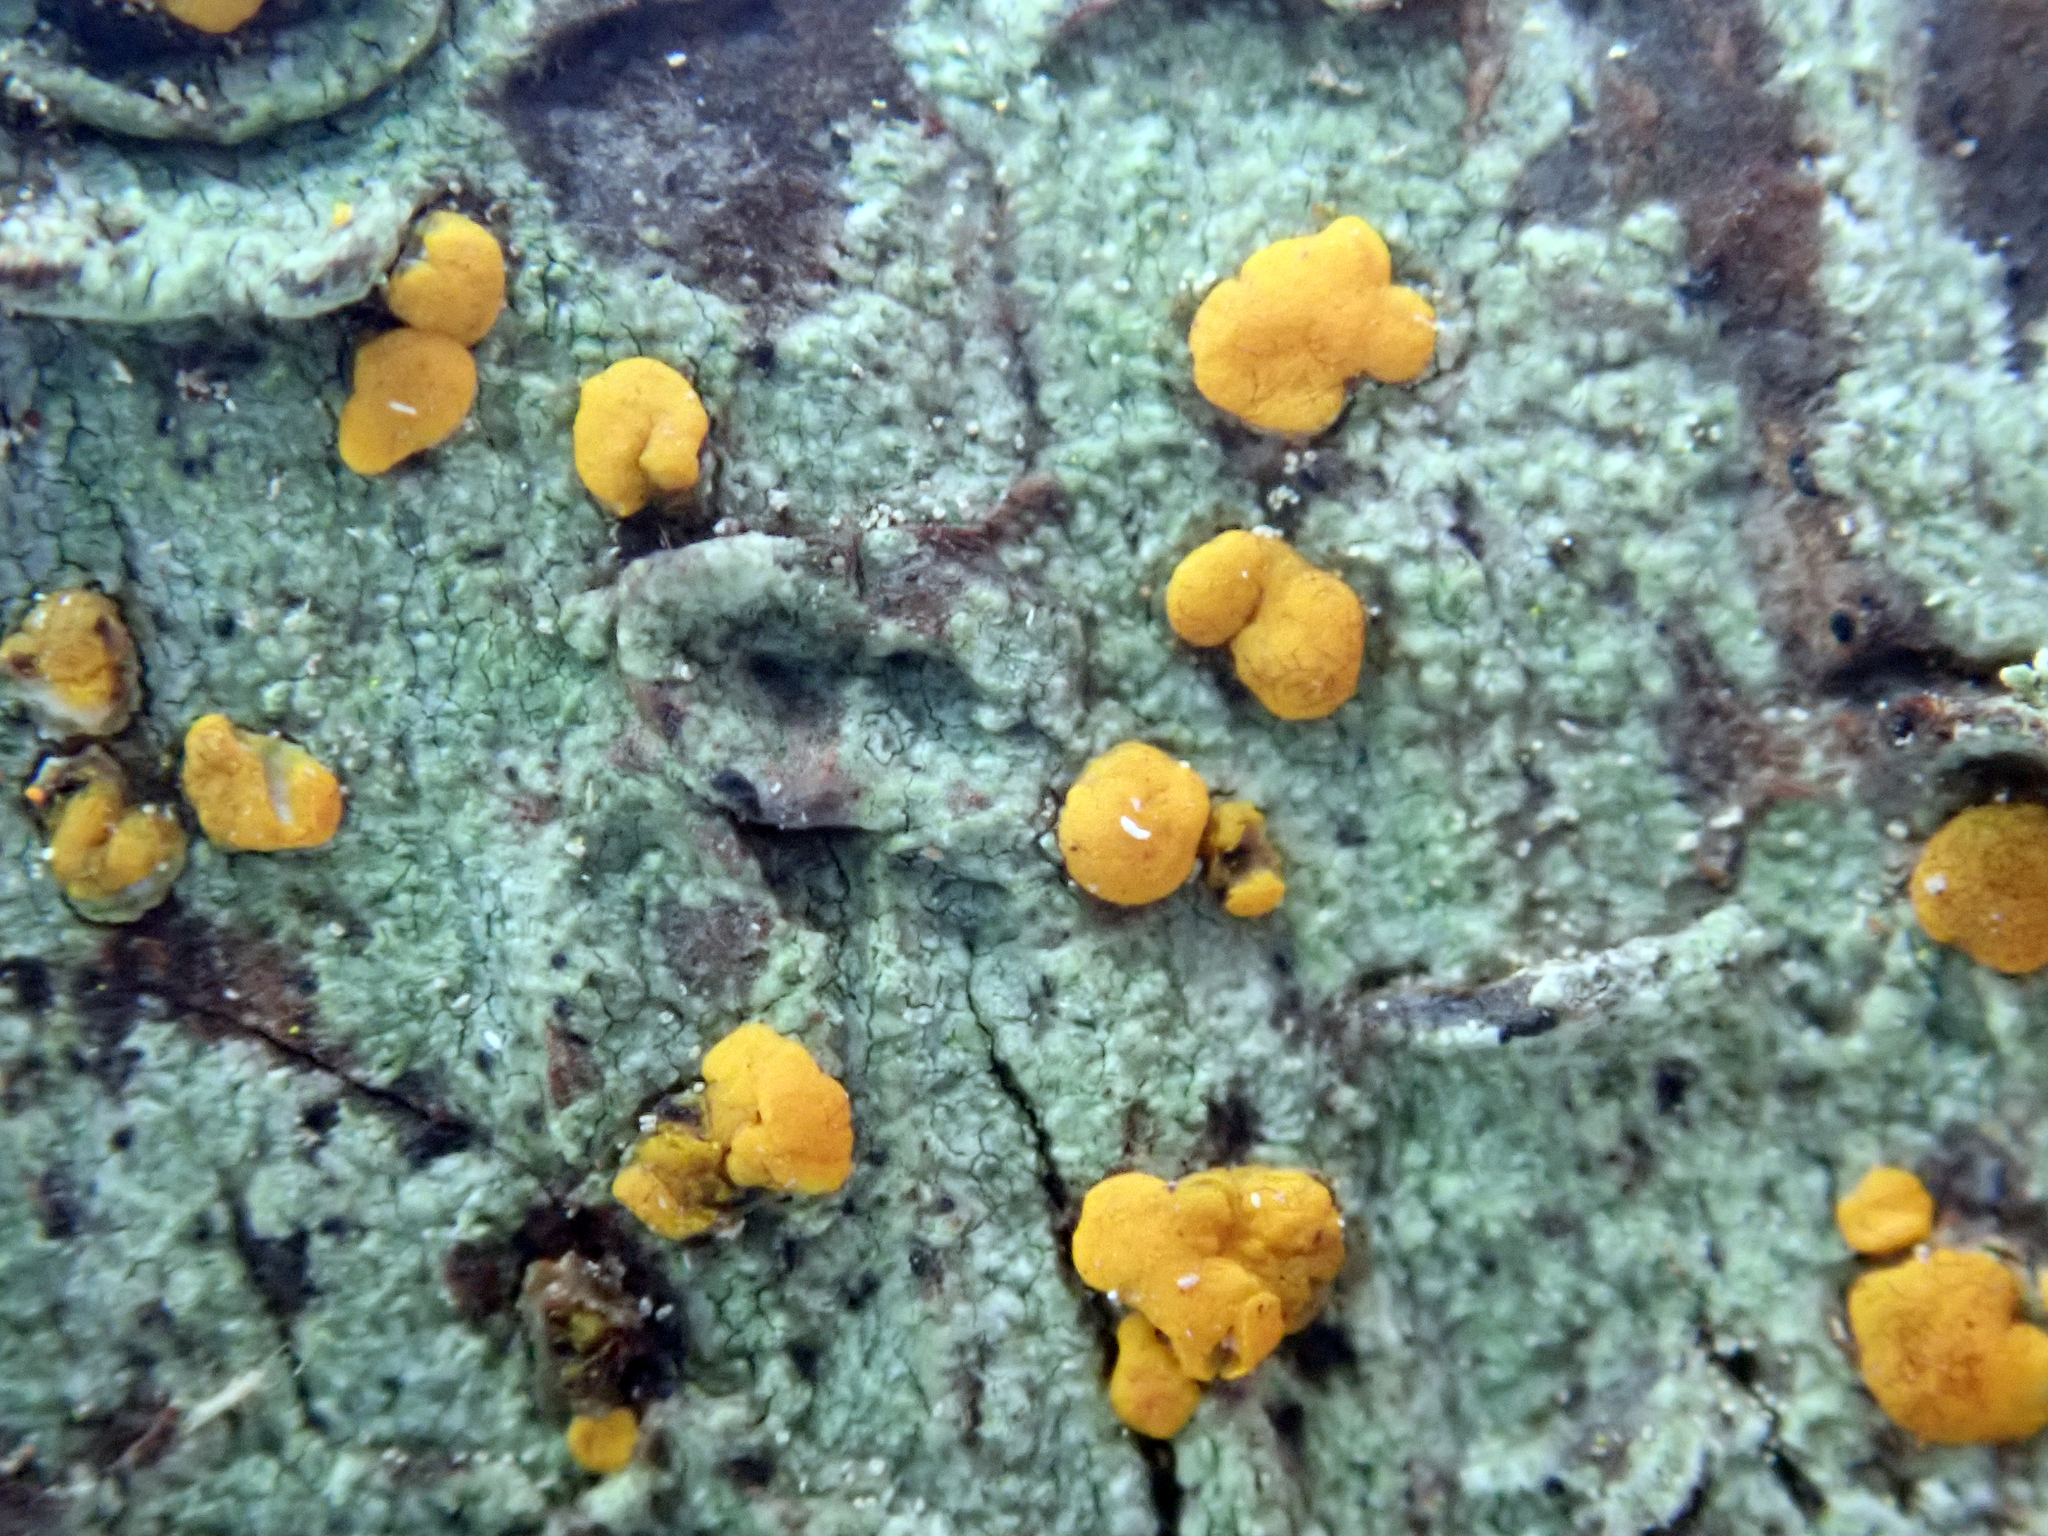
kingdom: Fungi
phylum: Ascomycota
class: Lecanoromycetes
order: Lecanorales
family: Ramalinaceae
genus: Stirtoniella
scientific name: Stirtoniella kelica
